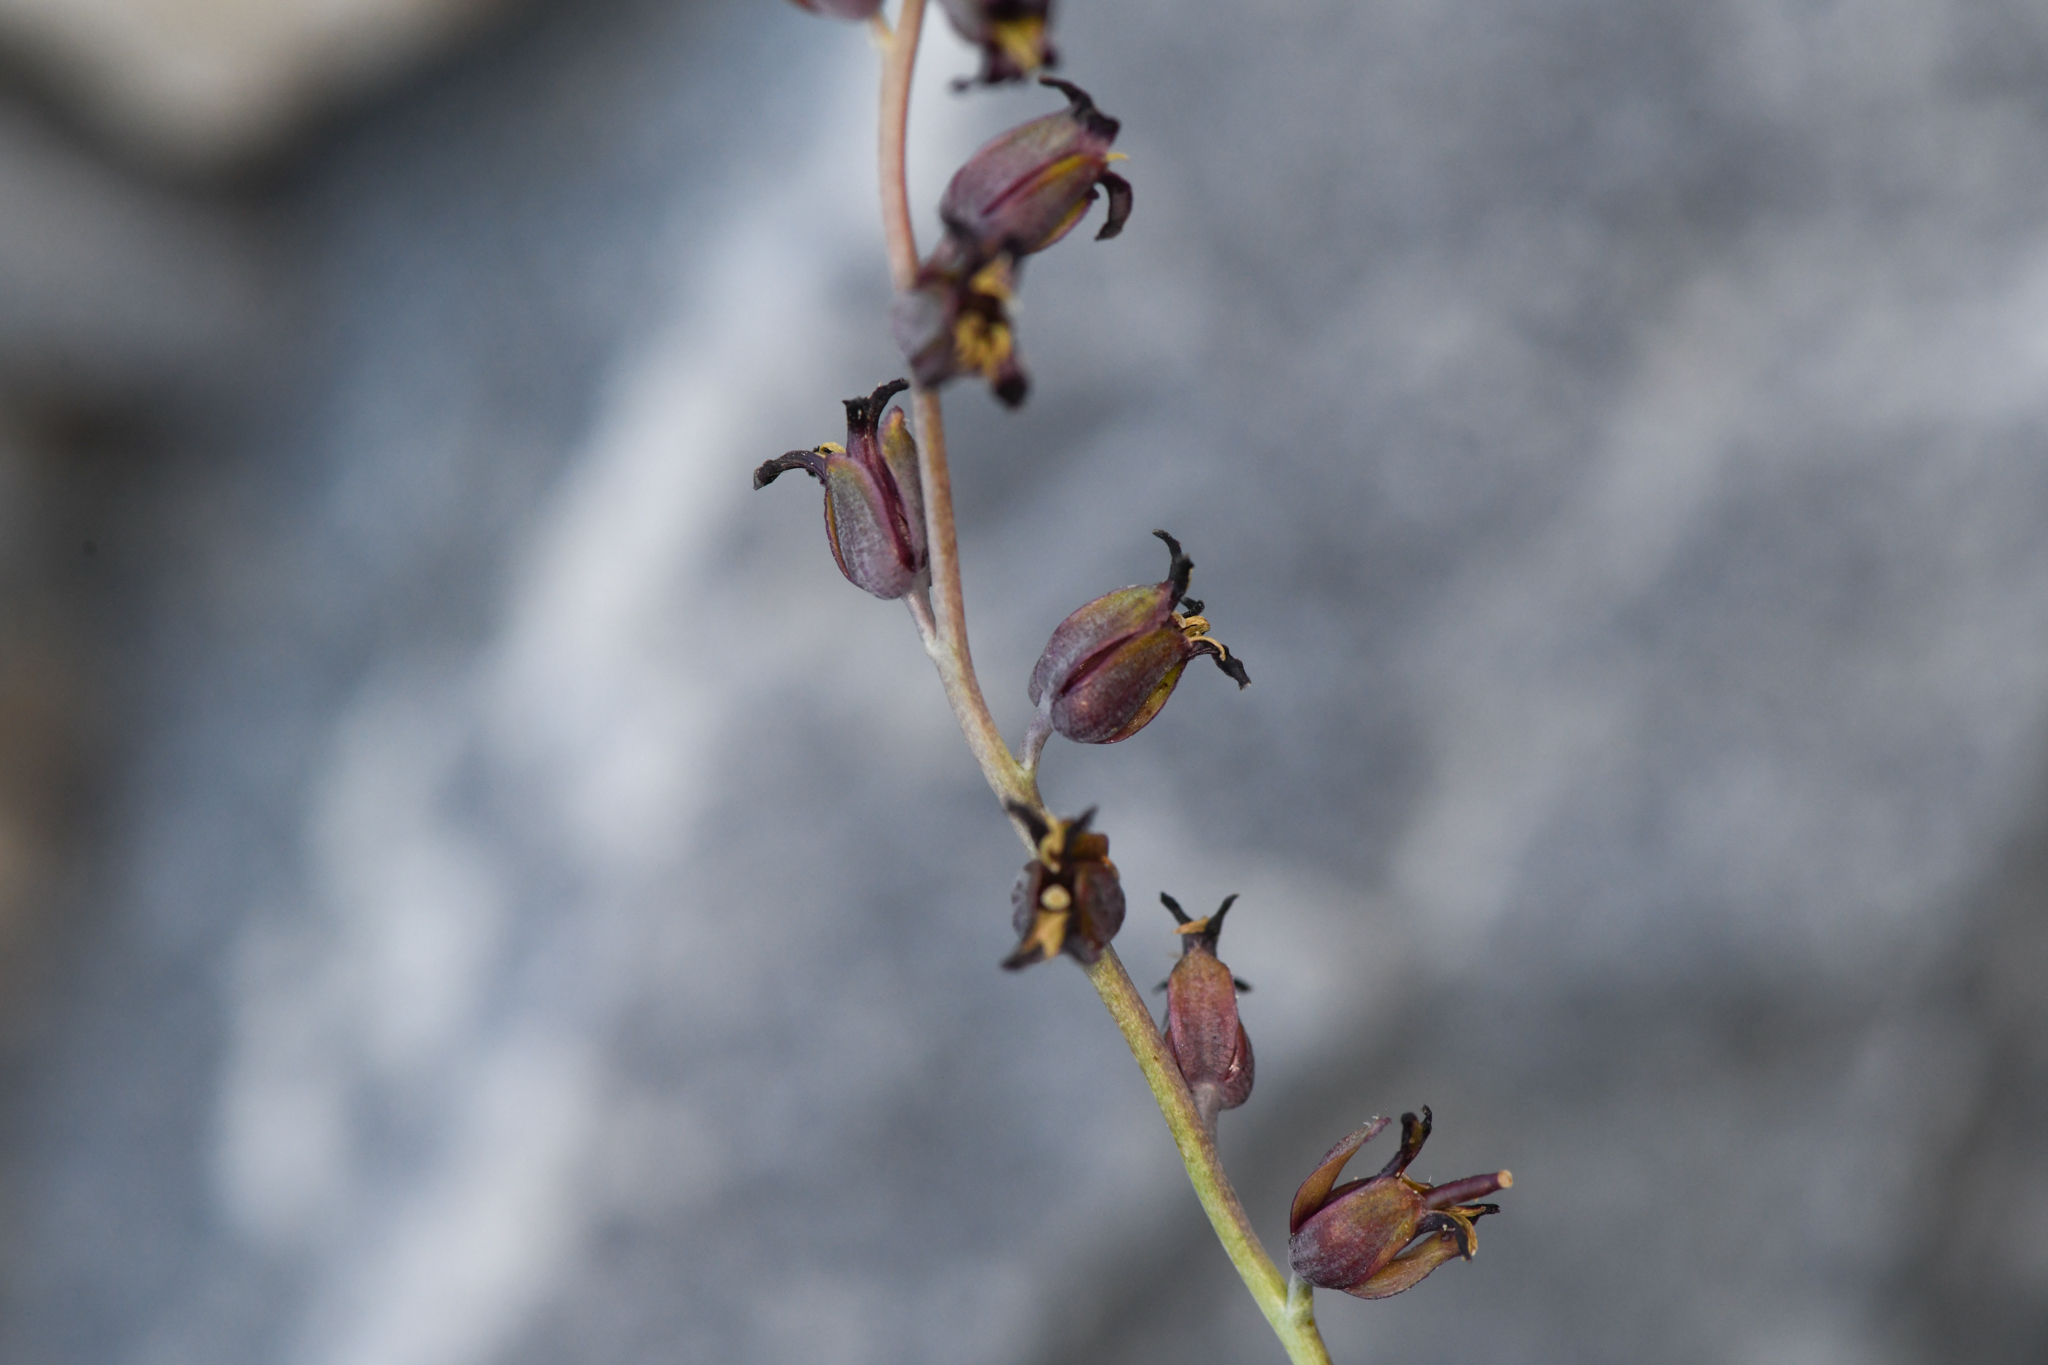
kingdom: Plantae
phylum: Tracheophyta
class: Magnoliopsida
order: Brassicales
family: Brassicaceae
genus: Streptanthus
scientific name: Streptanthus cordatus
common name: Heart-leaf jewel-flower
